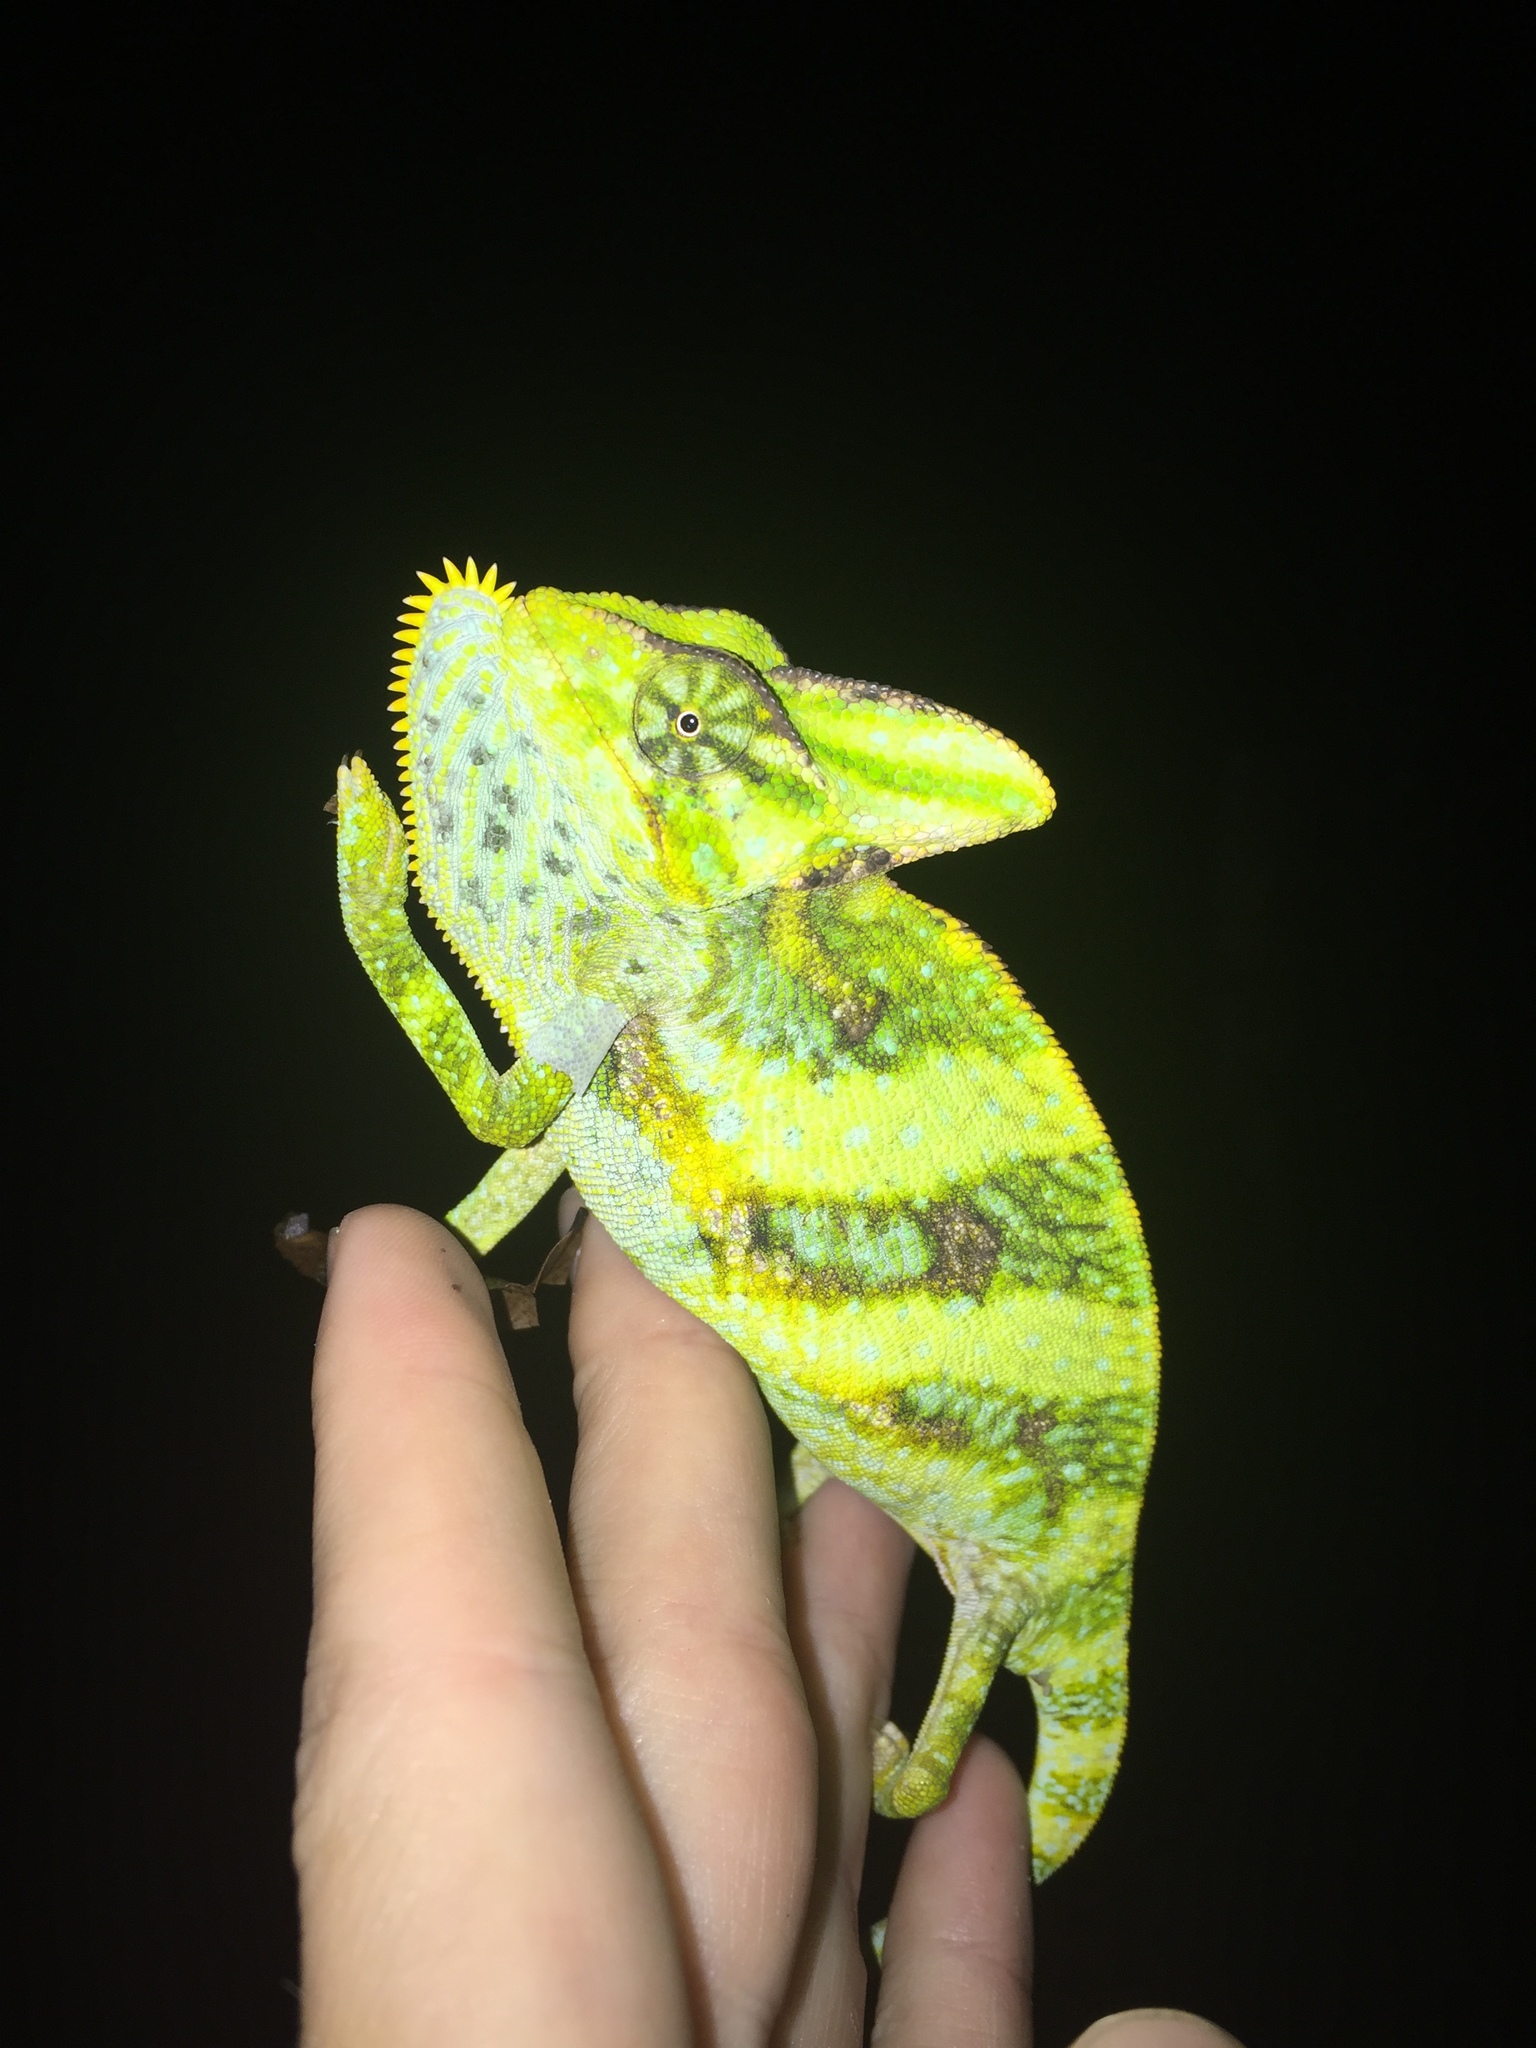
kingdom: Animalia
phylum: Chordata
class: Squamata
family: Chamaeleonidae
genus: Chamaeleo
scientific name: Chamaeleo calyptratus
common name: Veiled chameleon
